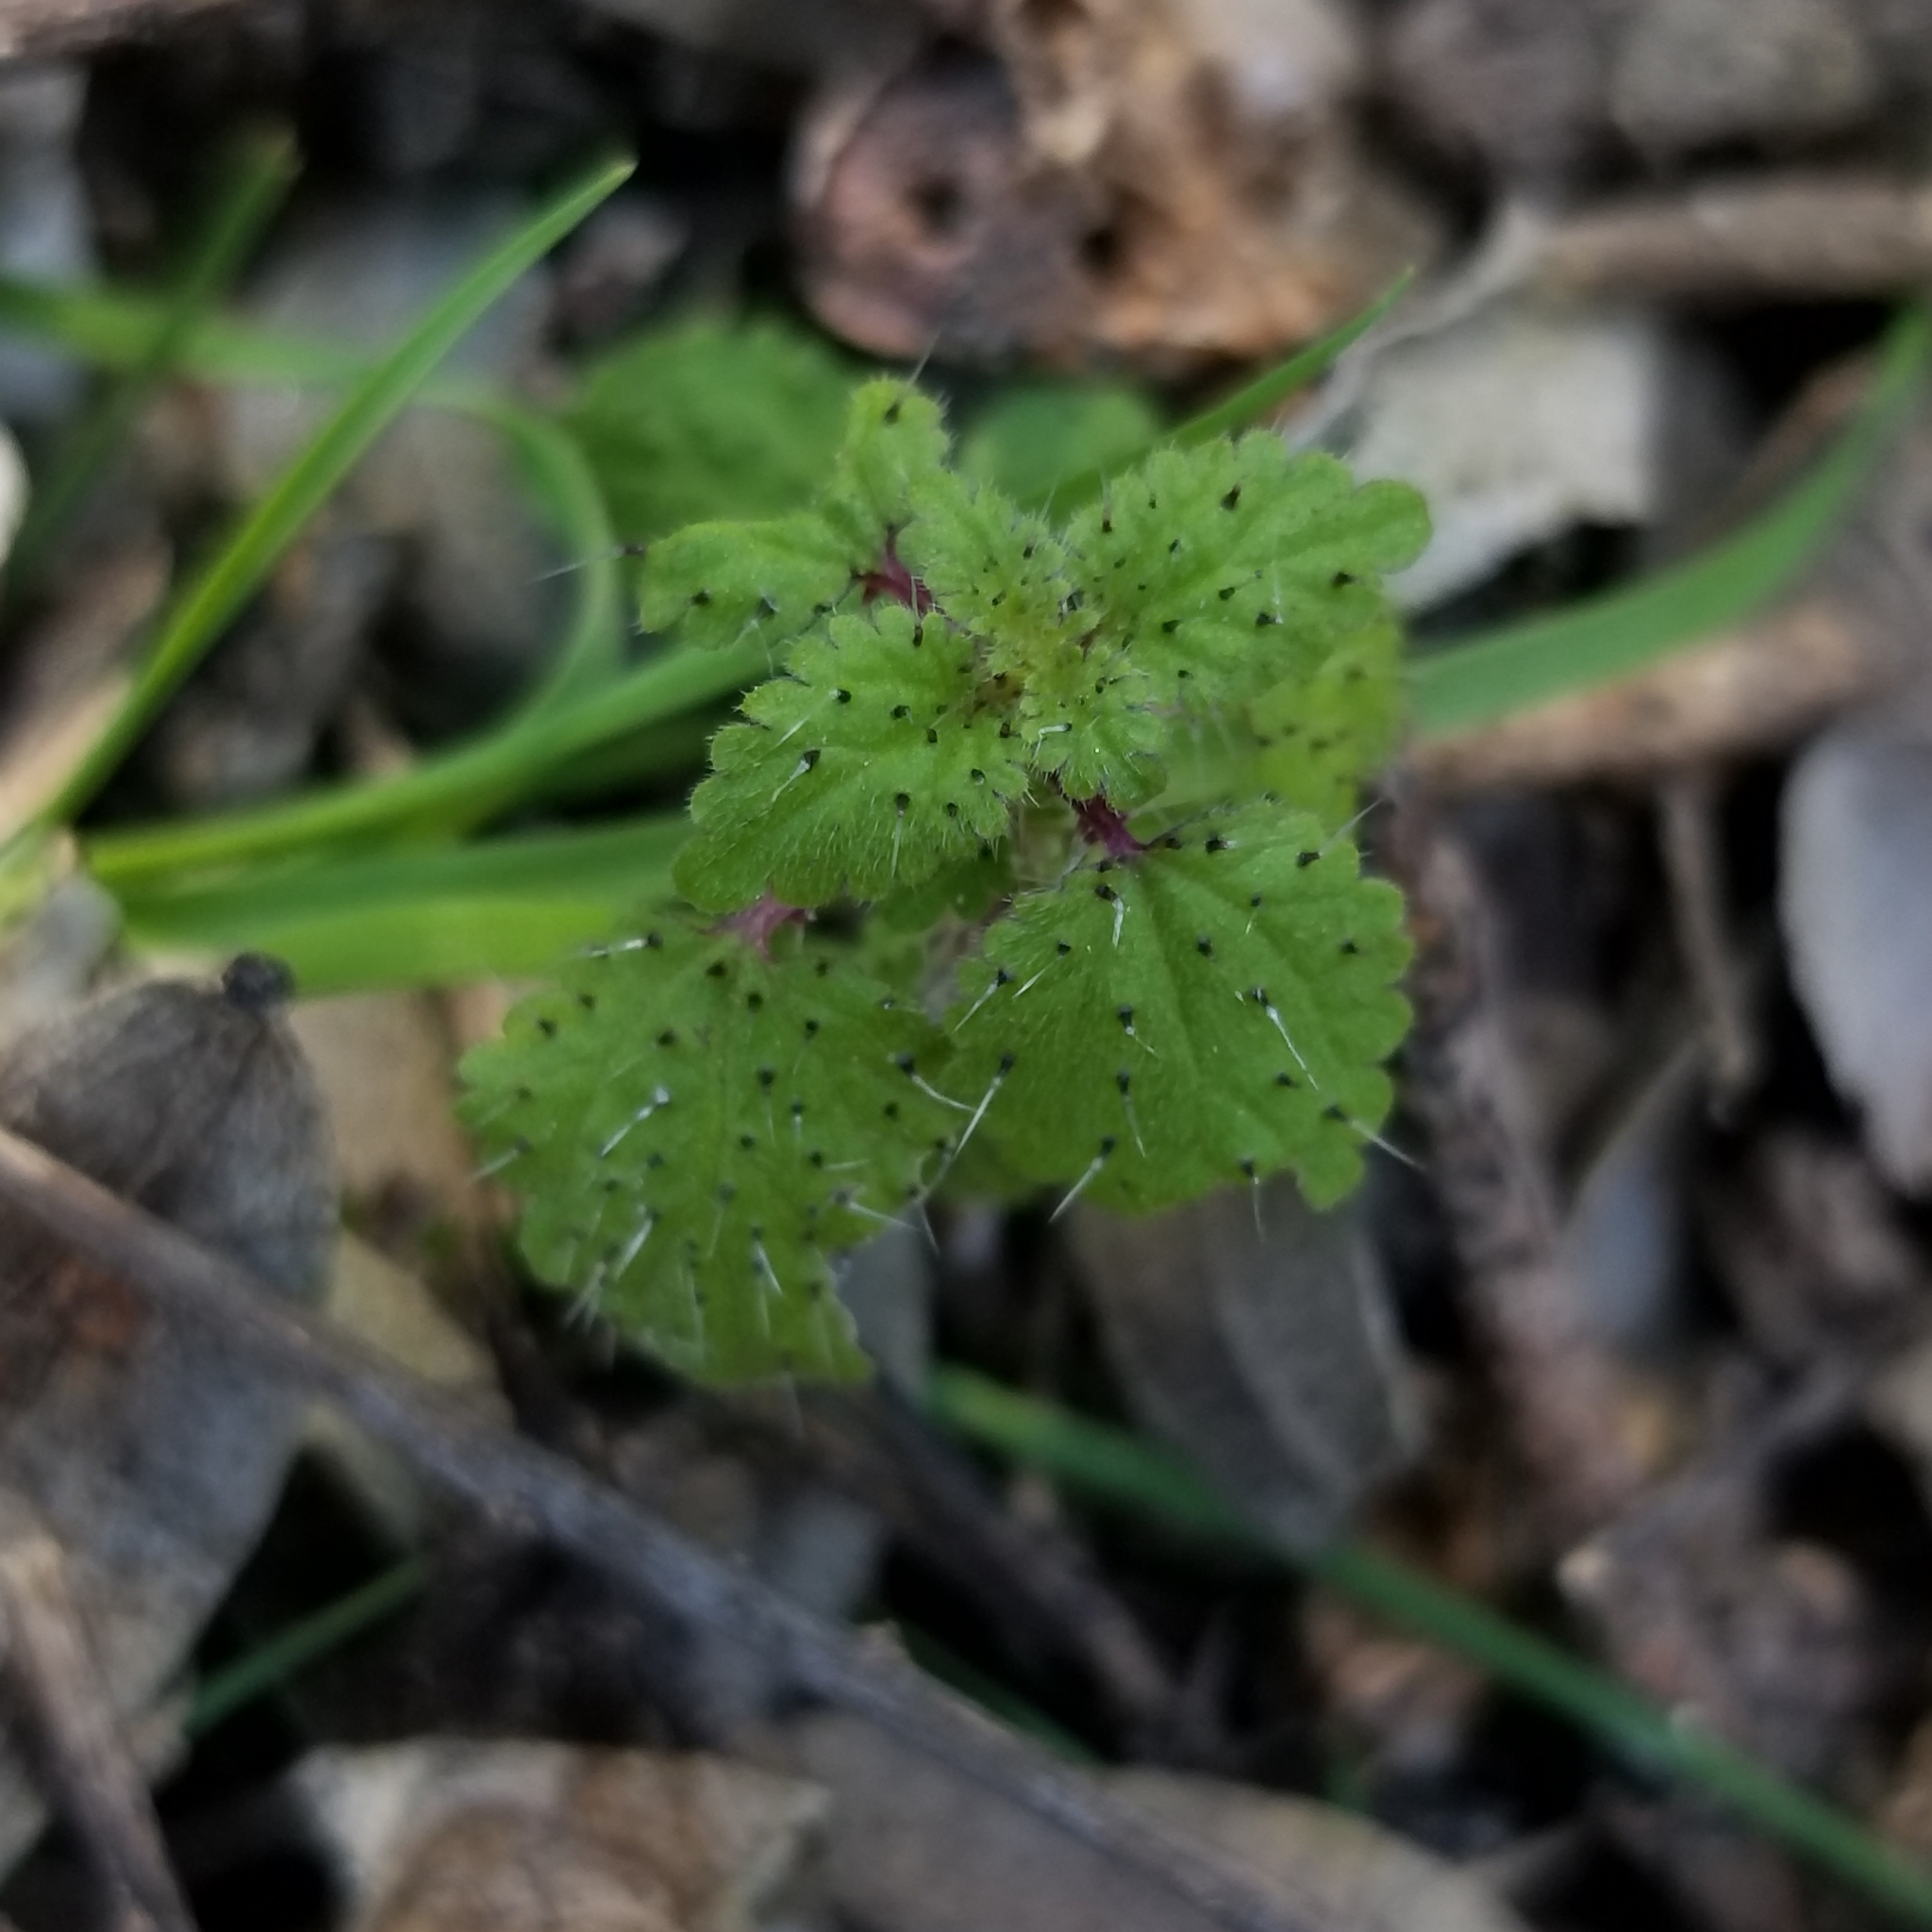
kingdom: Plantae
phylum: Tracheophyta
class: Magnoliopsida
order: Rosales
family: Urticaceae
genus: Hesperocnide
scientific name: Hesperocnide tenella
